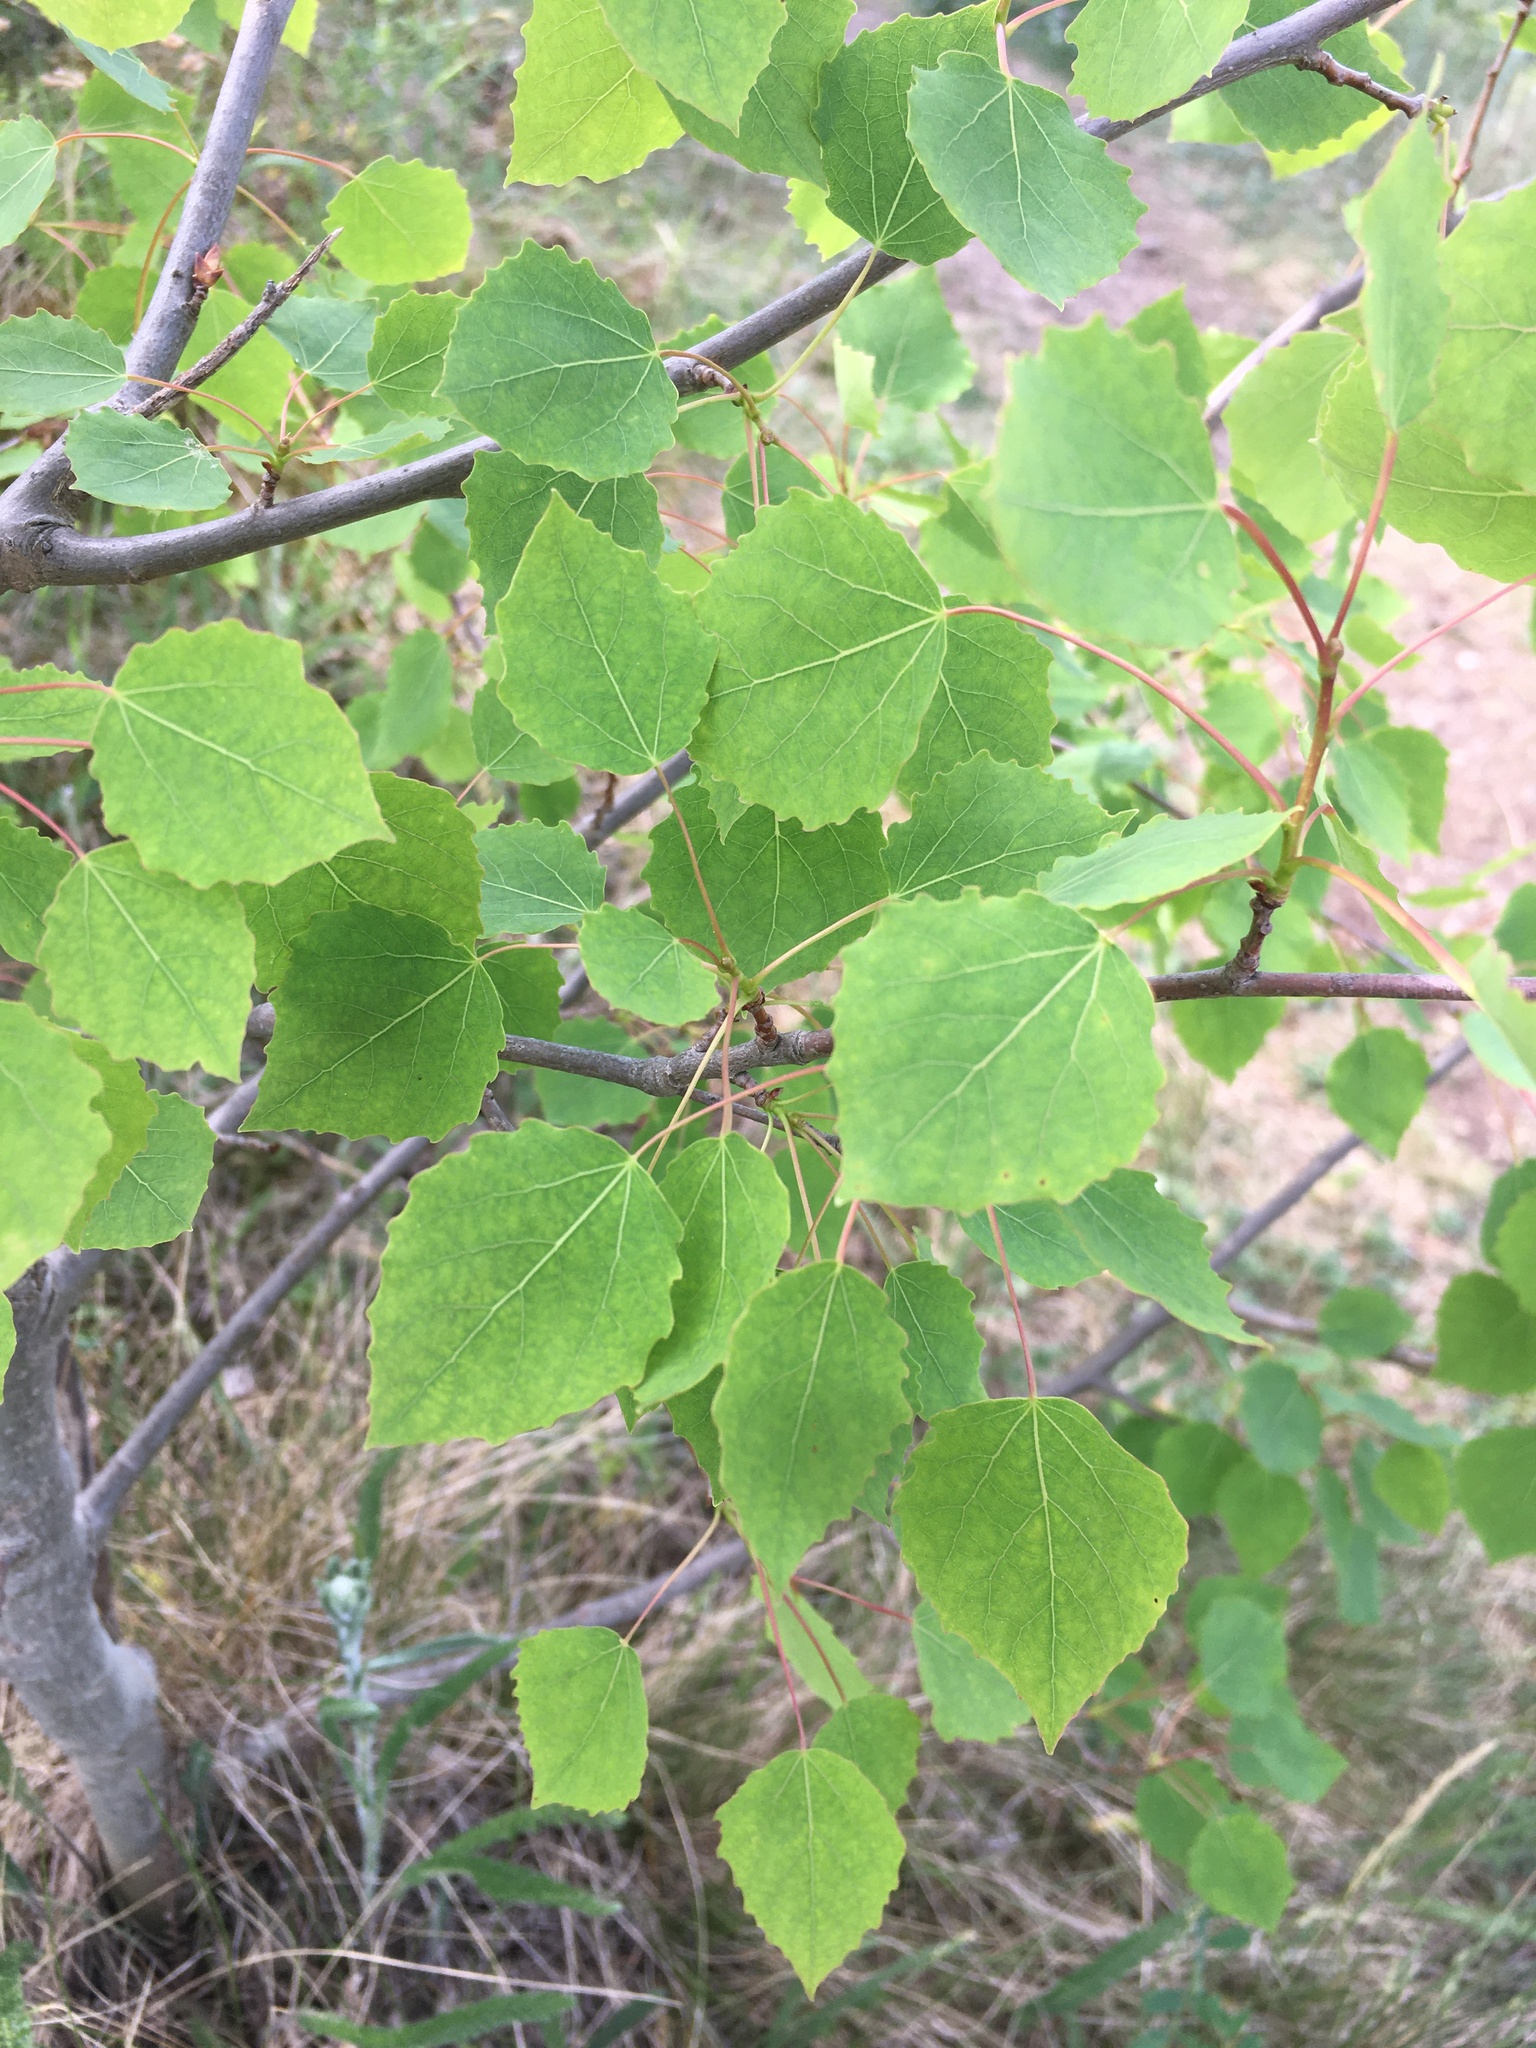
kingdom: Plantae
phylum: Tracheophyta
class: Magnoliopsida
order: Malpighiales
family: Salicaceae
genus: Populus
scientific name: Populus tremula
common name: European aspen
